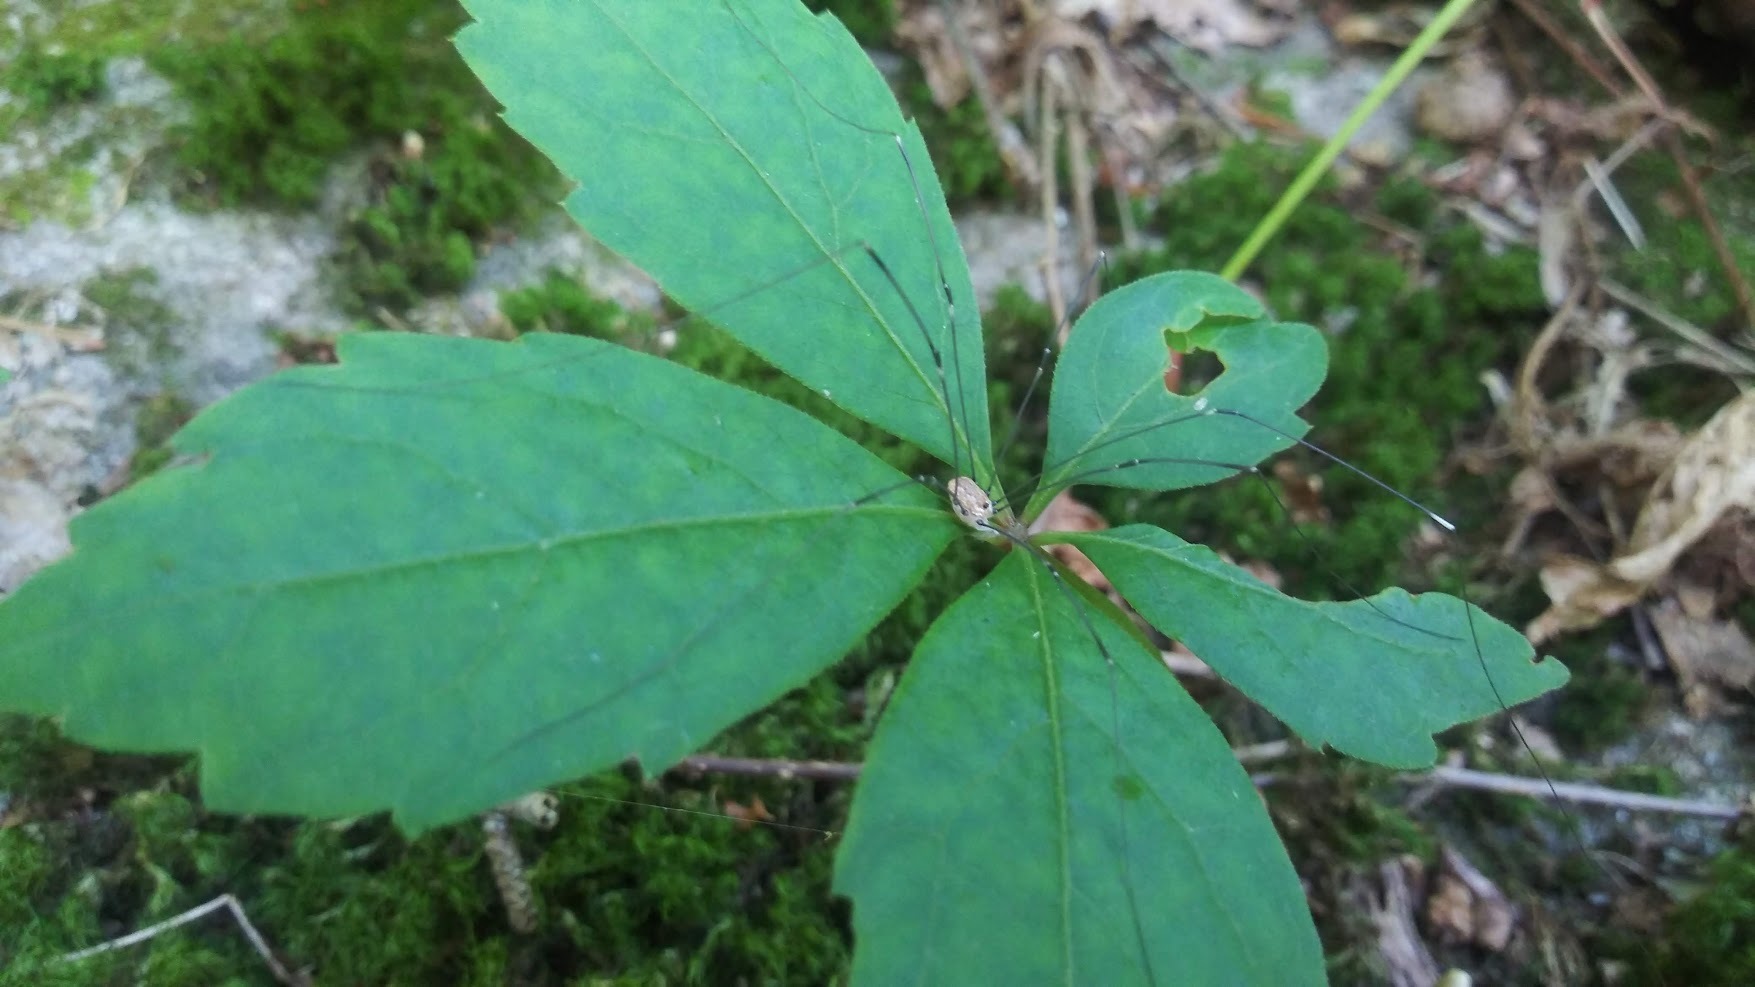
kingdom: Animalia
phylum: Arthropoda
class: Arachnida
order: Opiliones
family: Sclerosomatidae
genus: Leiobunum
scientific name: Leiobunum aldrichi
